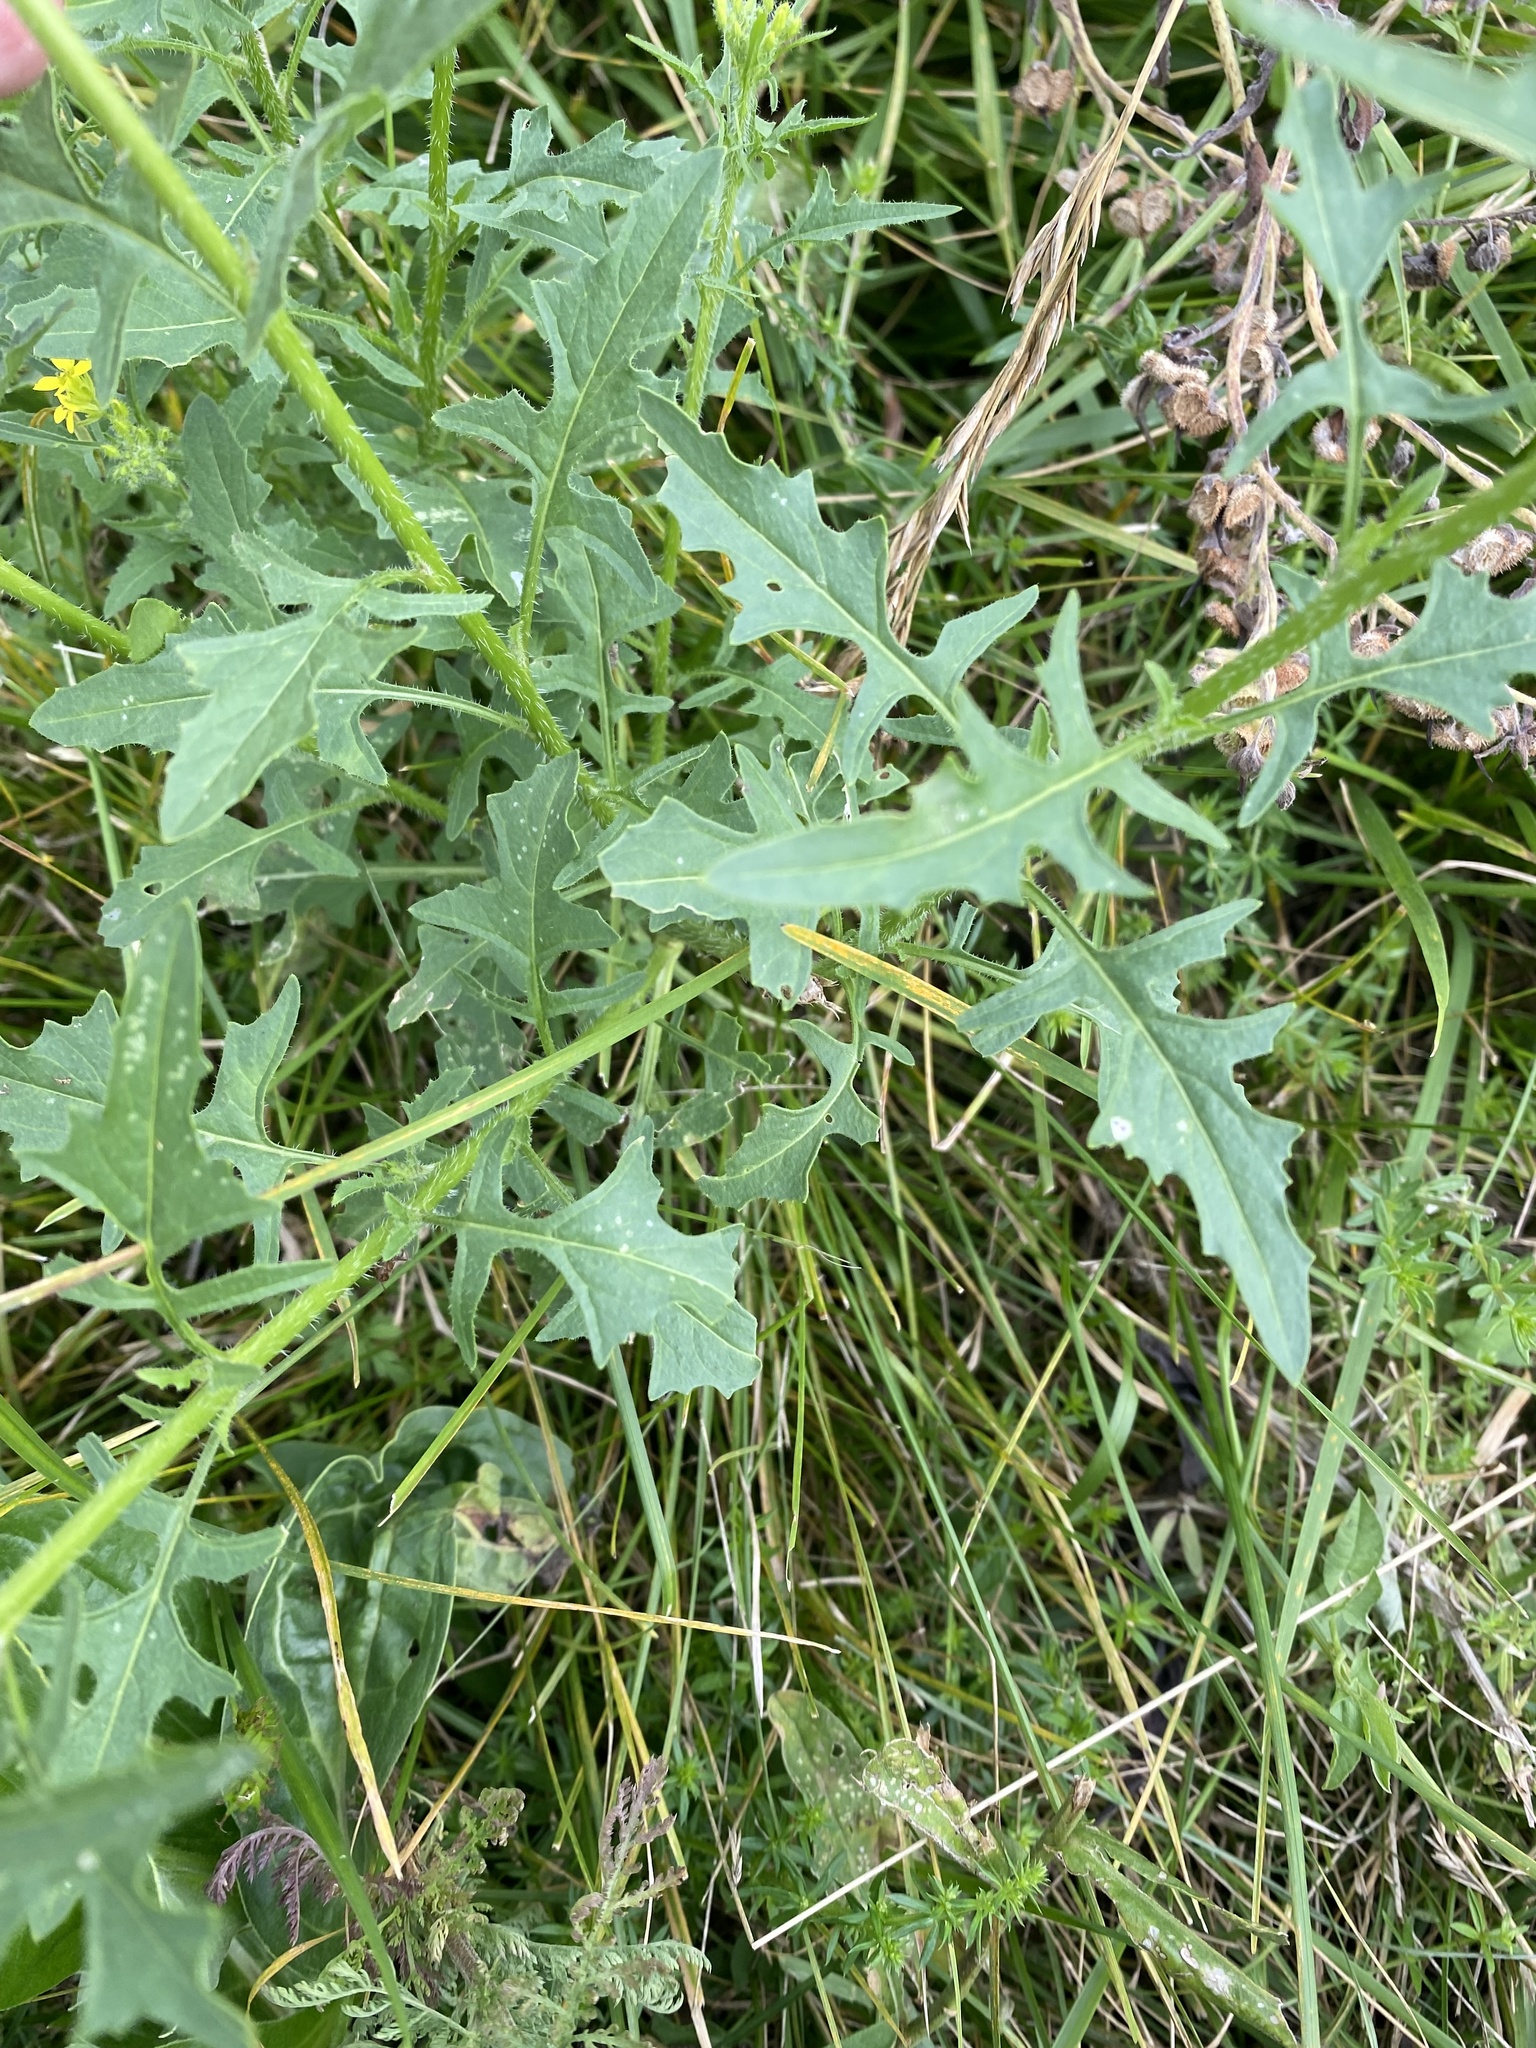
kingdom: Plantae
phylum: Tracheophyta
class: Magnoliopsida
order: Brassicales
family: Brassicaceae
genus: Sisymbrium
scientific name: Sisymbrium loeselii
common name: False london-rocket
